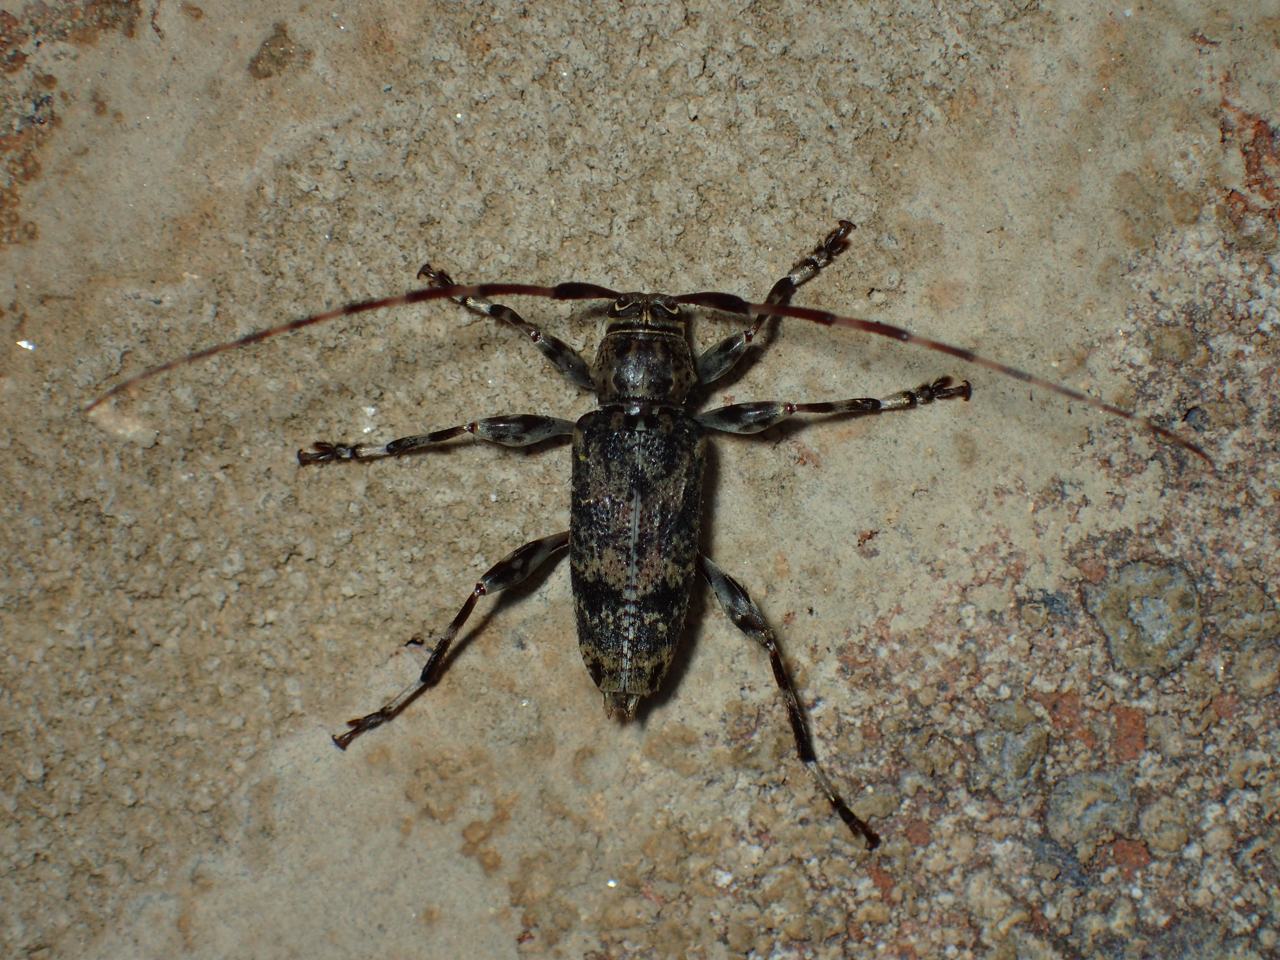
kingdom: Animalia
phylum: Arthropoda
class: Insecta
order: Coleoptera
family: Cerambycidae
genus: Graphisurus
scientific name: Graphisurus fasciatus
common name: Banded graphisurus
